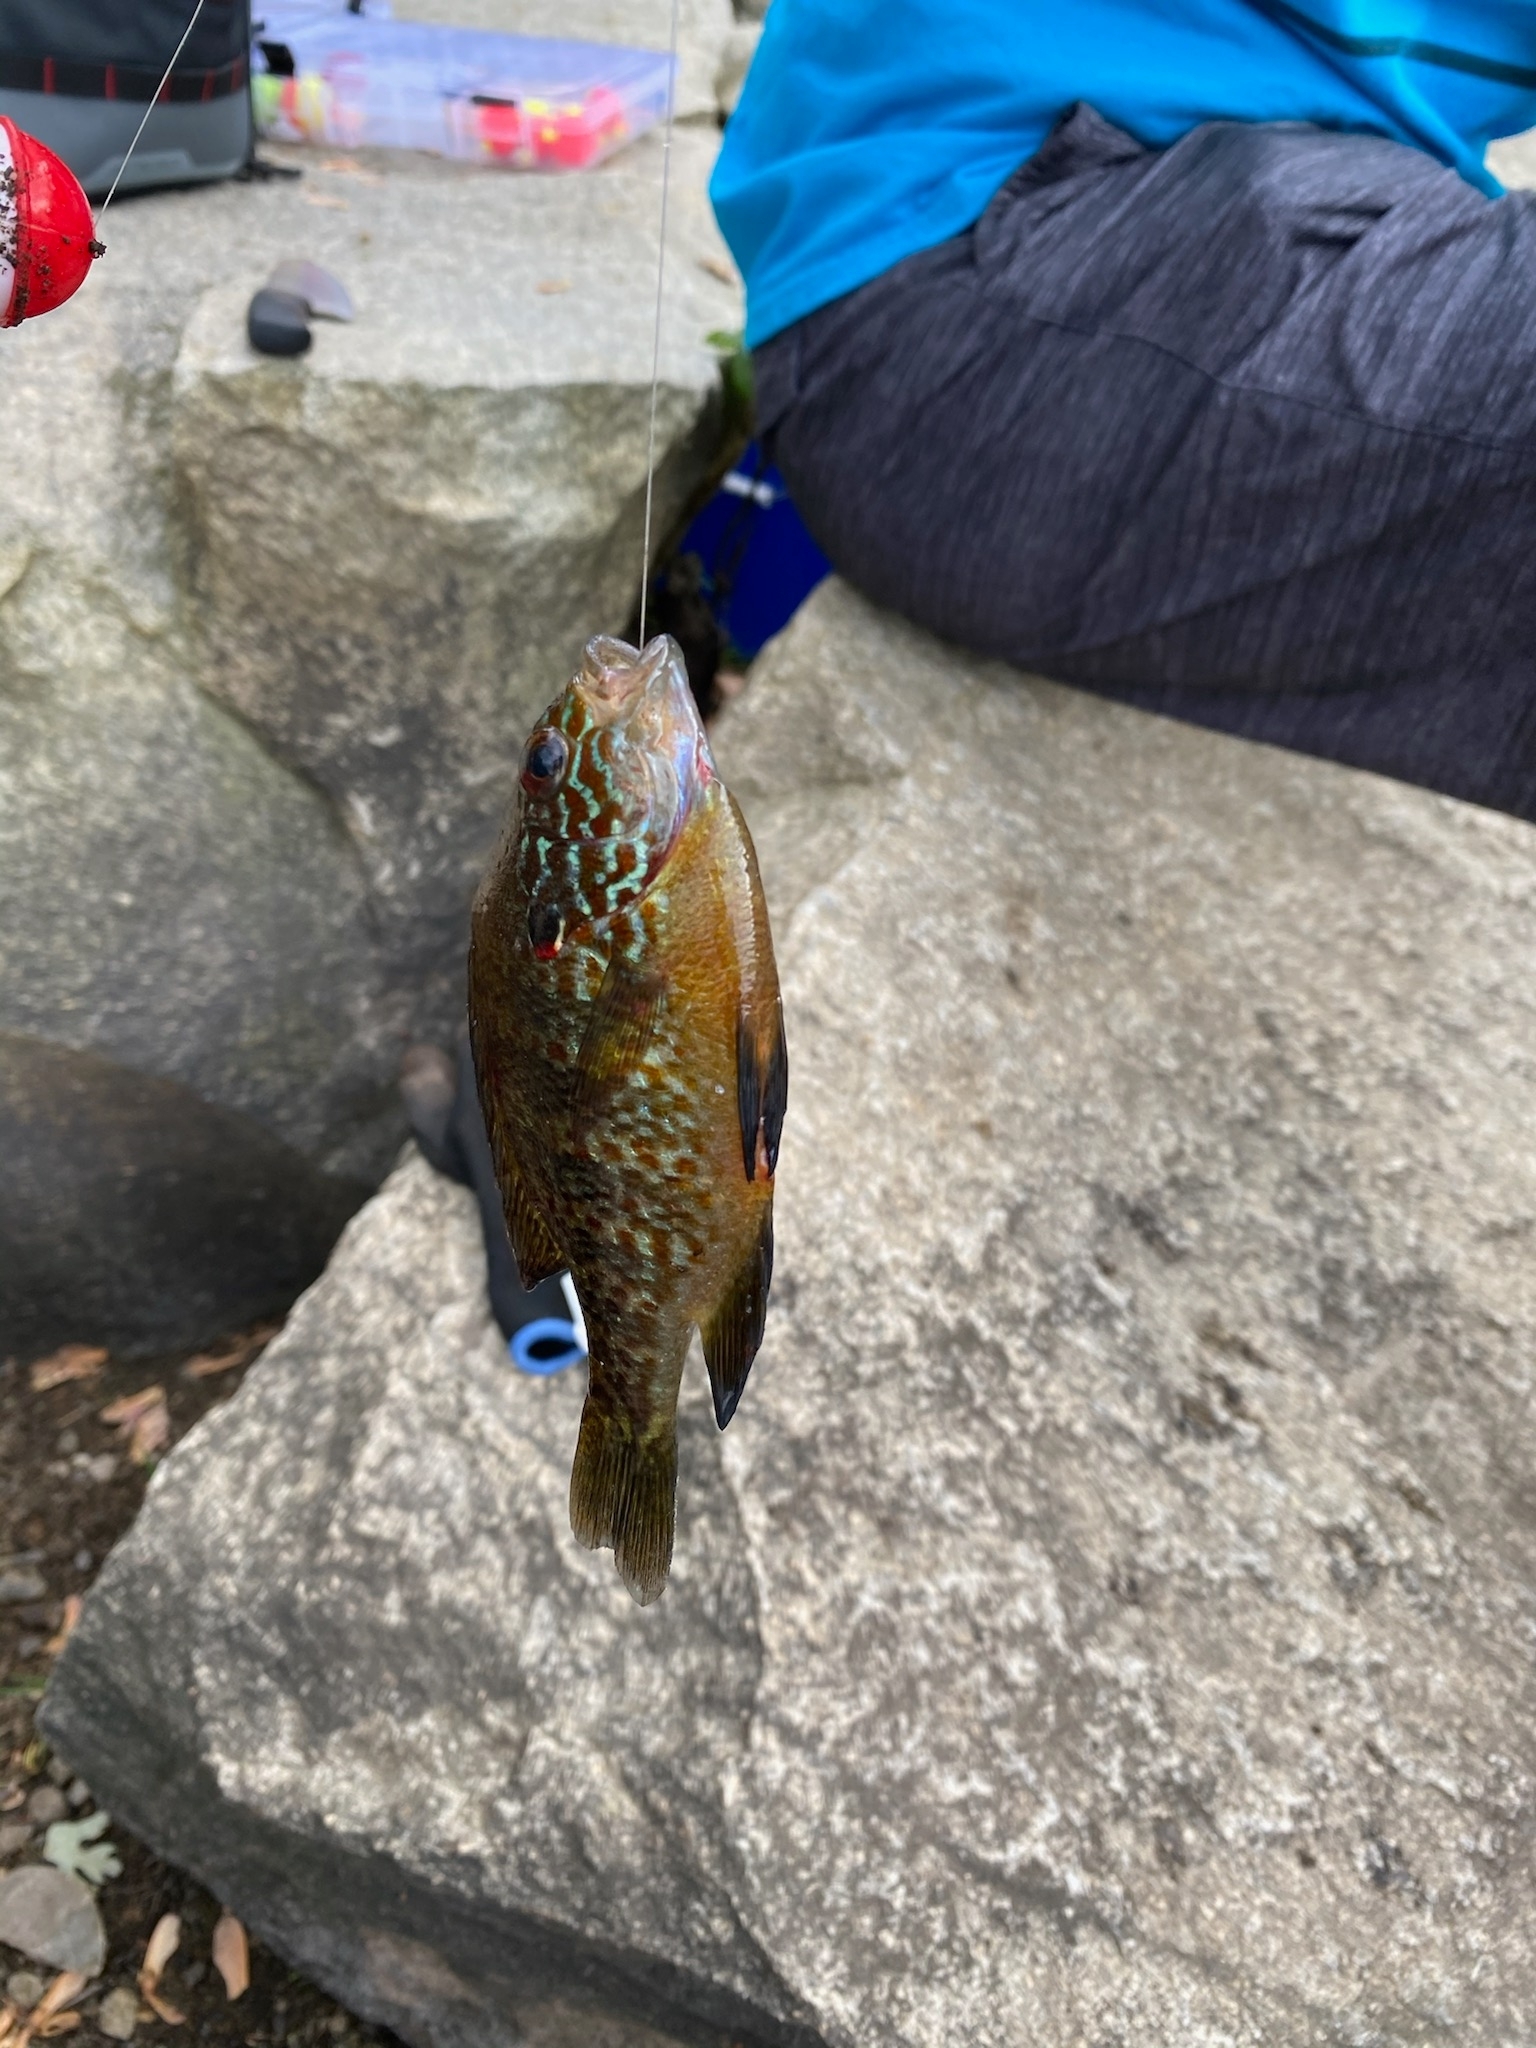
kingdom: Animalia
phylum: Chordata
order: Perciformes
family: Centrarchidae
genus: Lepomis
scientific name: Lepomis gibbosus
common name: Pumpkinseed
